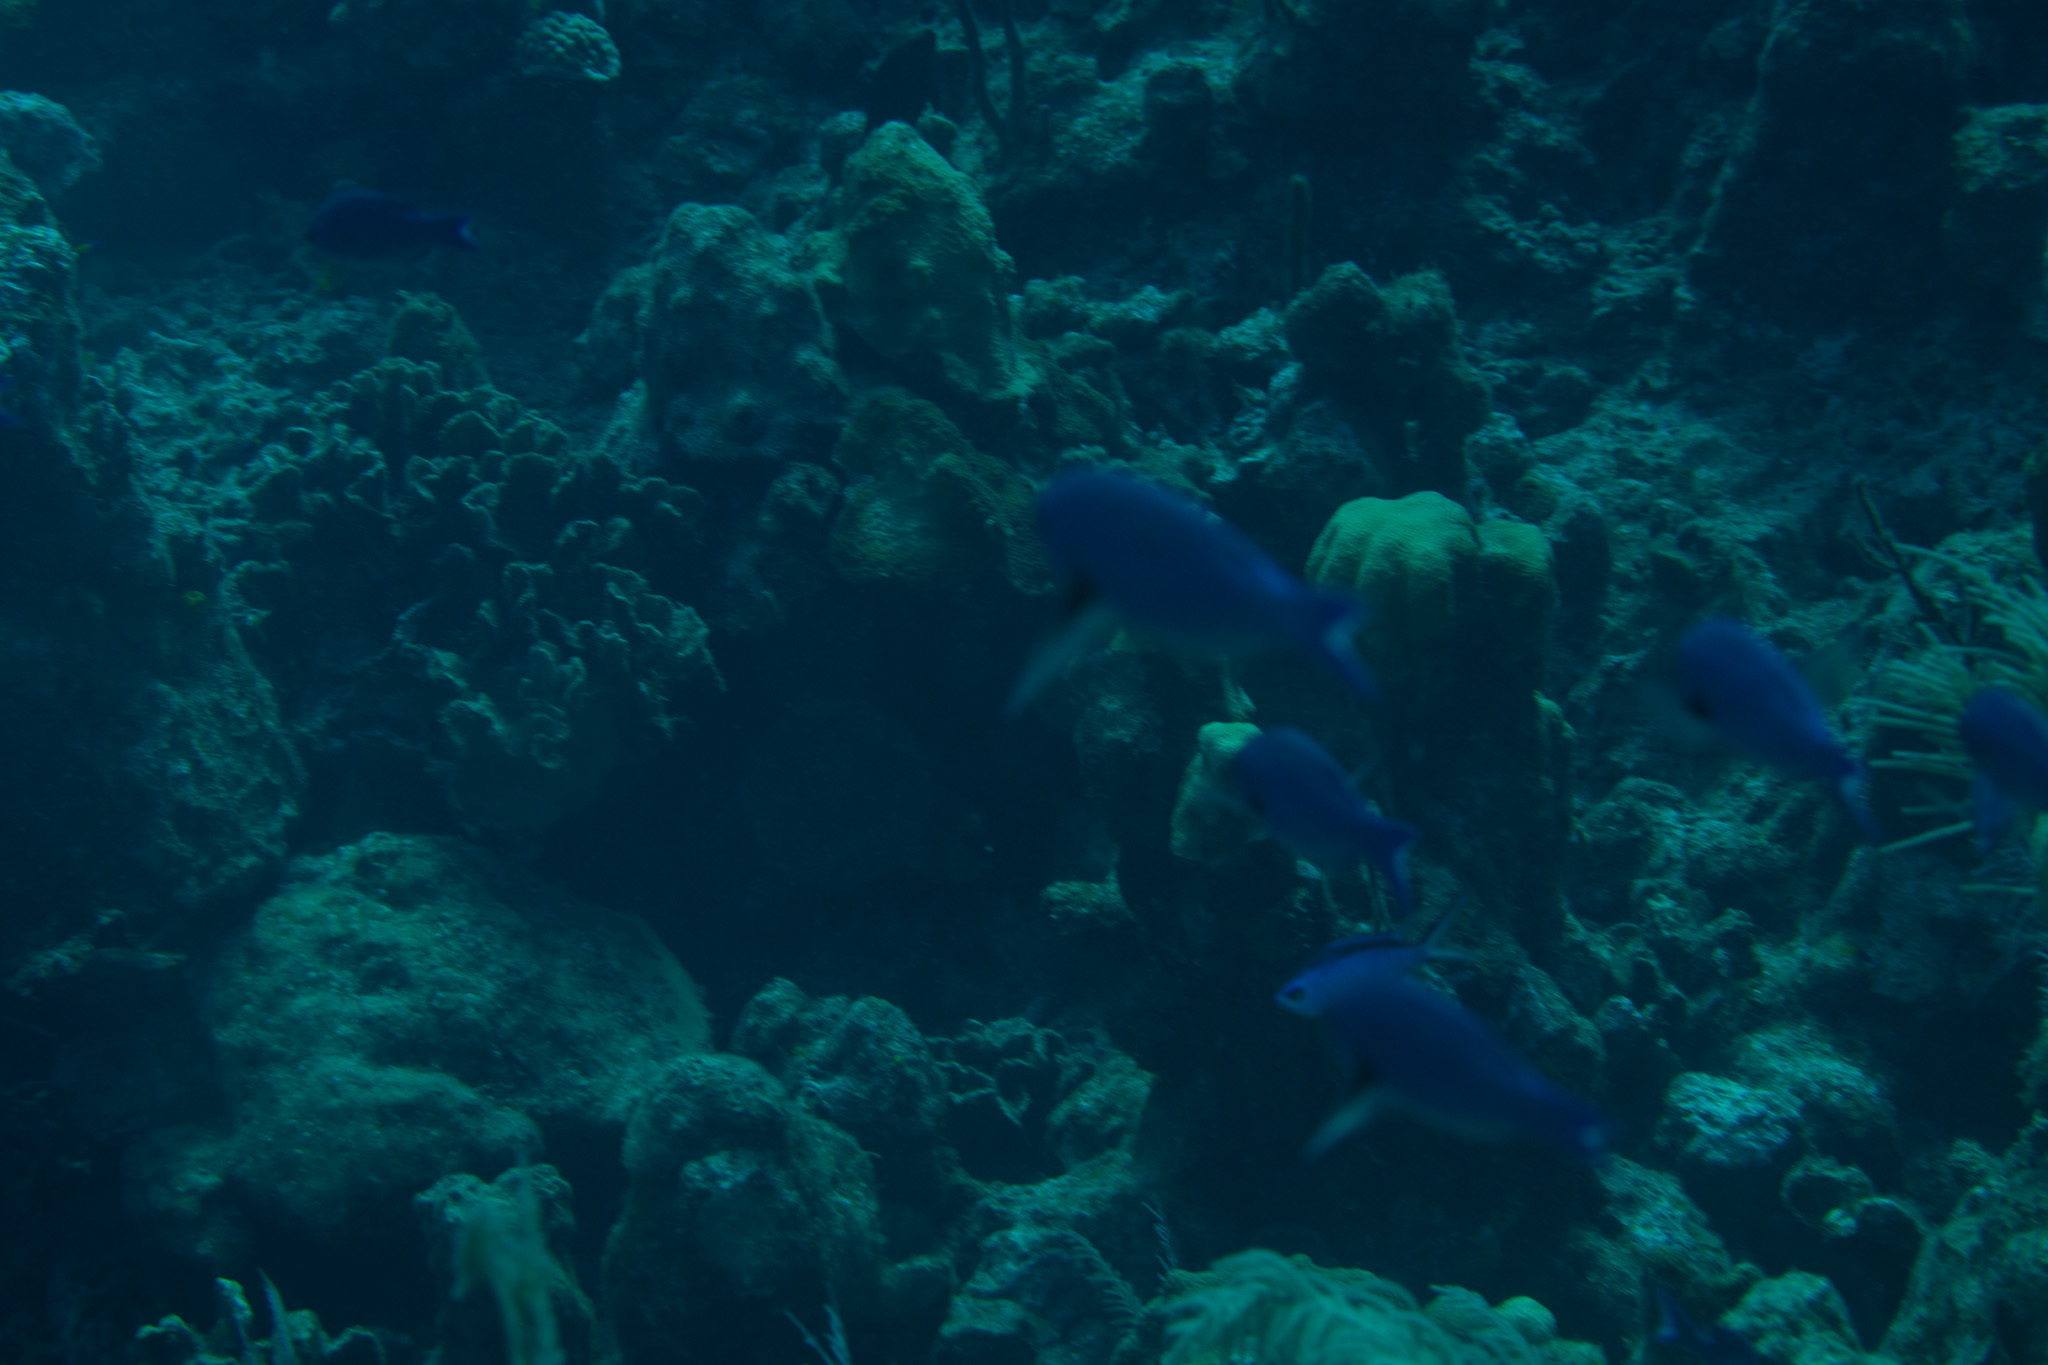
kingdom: Animalia
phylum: Chordata
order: Perciformes
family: Labridae
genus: Bodianus
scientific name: Bodianus
